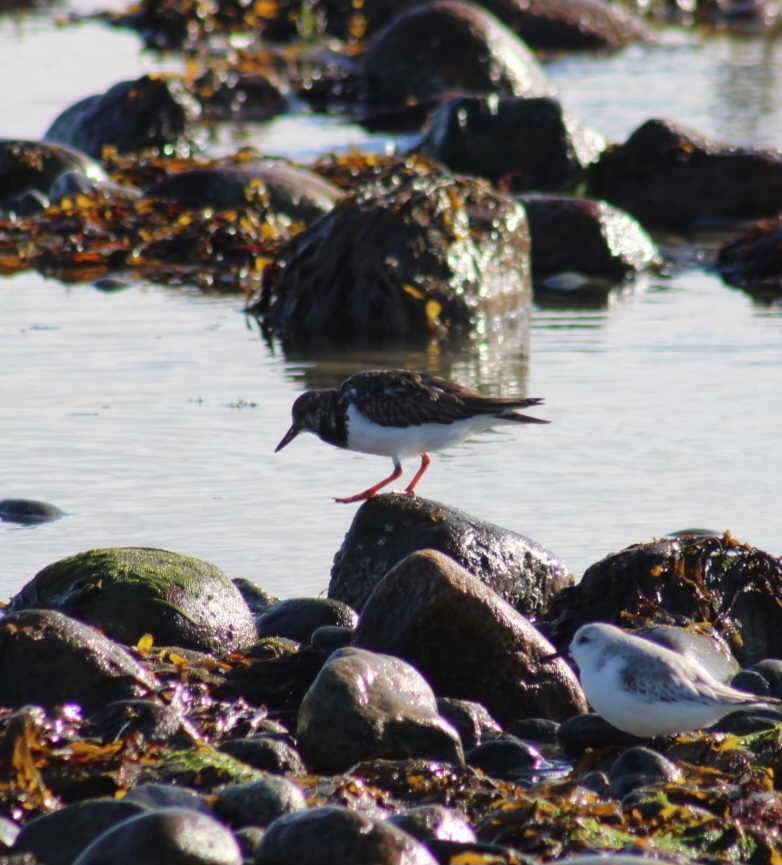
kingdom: Animalia
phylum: Chordata
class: Aves
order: Charadriiformes
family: Scolopacidae
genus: Arenaria
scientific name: Arenaria interpres
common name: Ruddy turnstone
